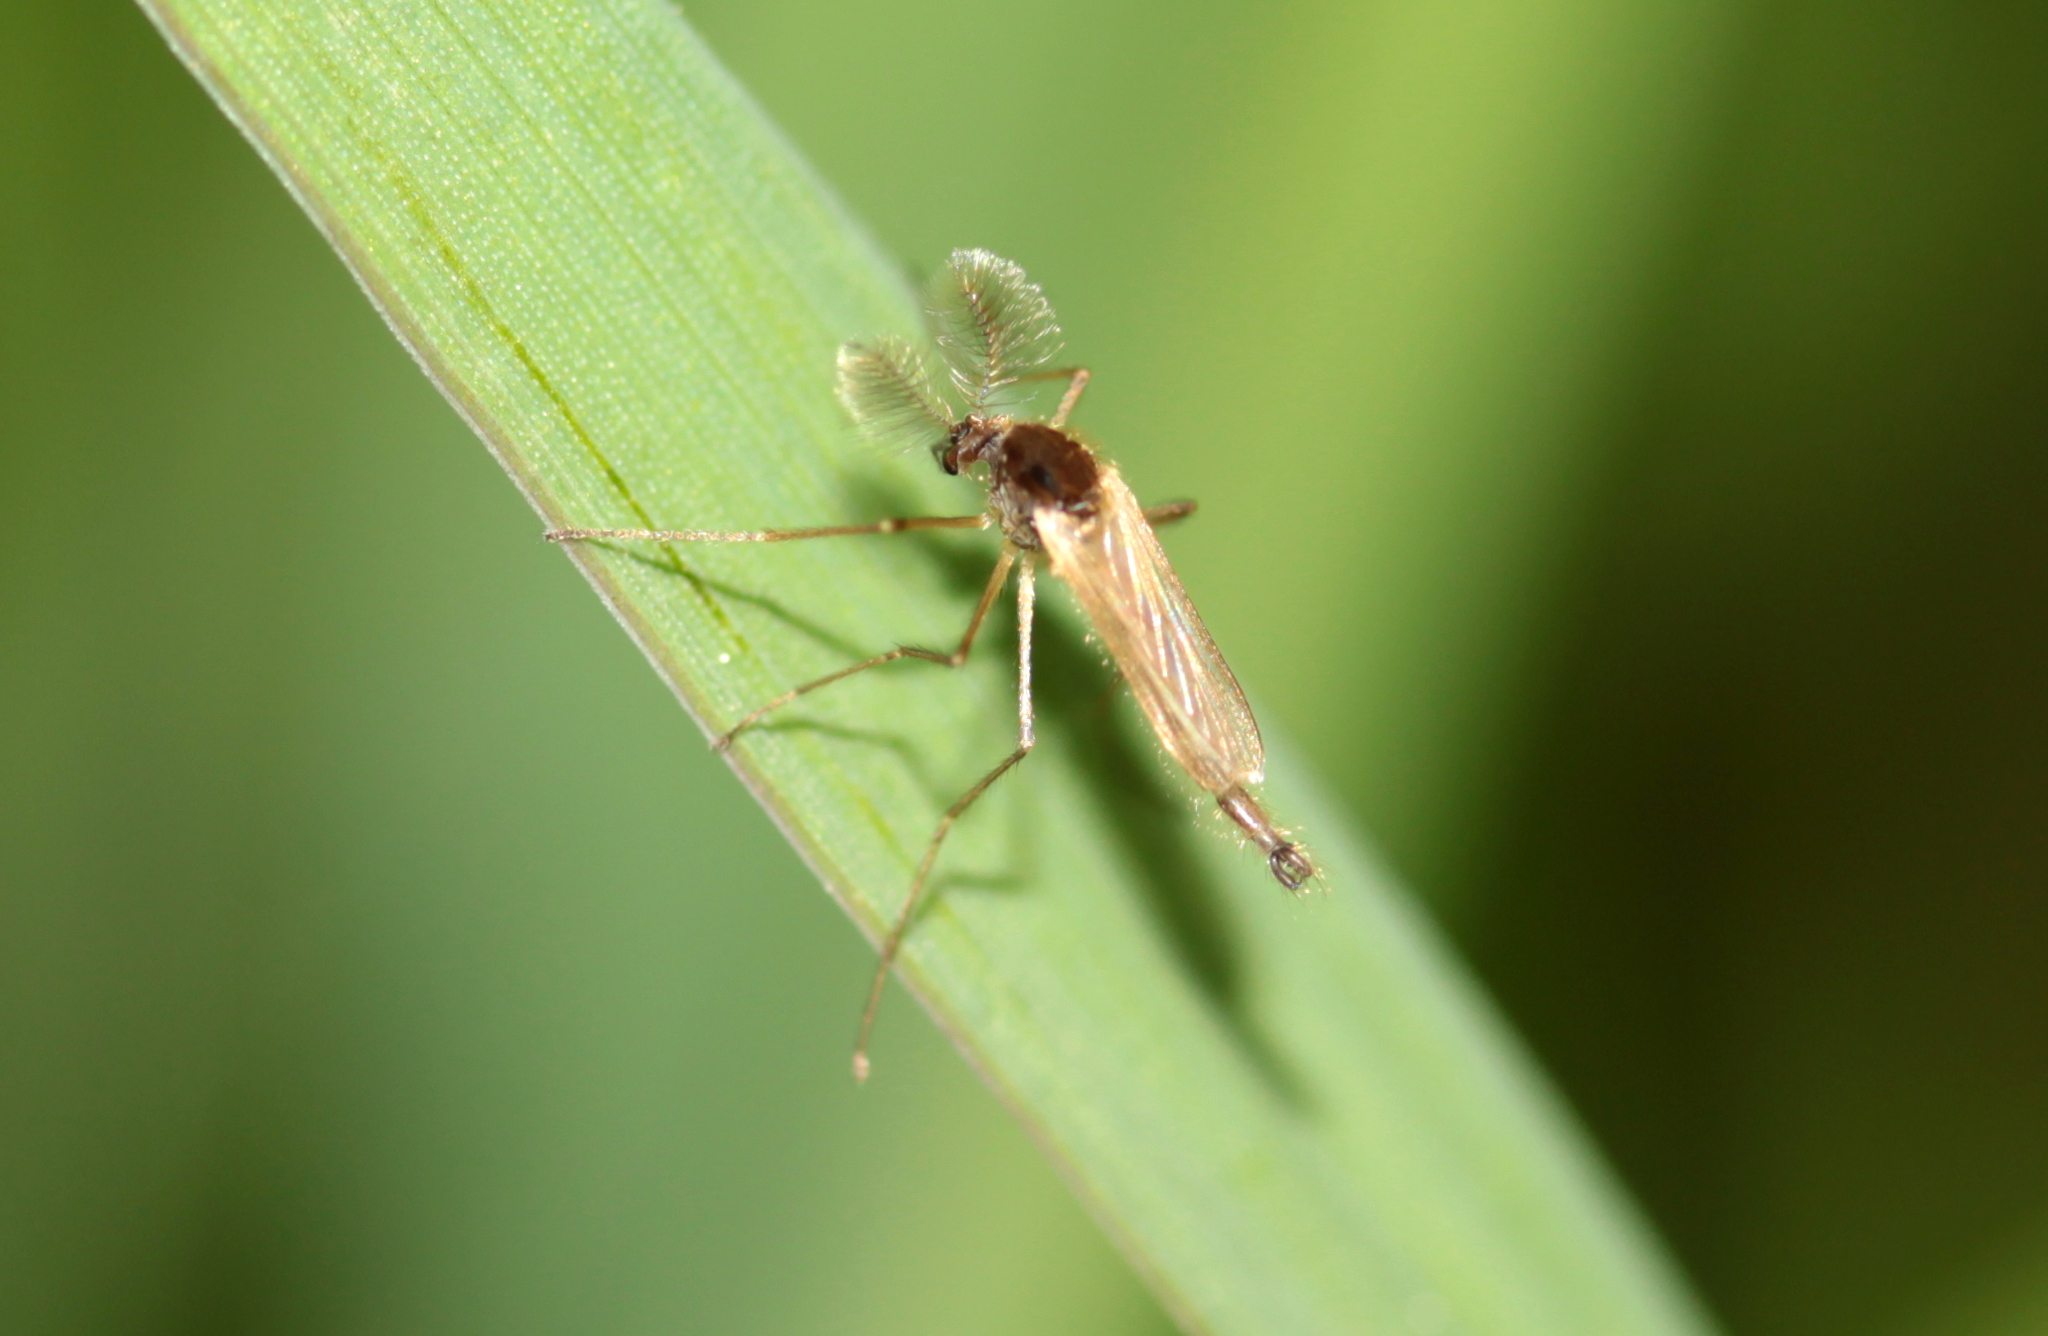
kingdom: Animalia
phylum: Arthropoda
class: Insecta
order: Diptera
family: Chaoboridae
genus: Mochlonyx
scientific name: Mochlonyx velutinus
